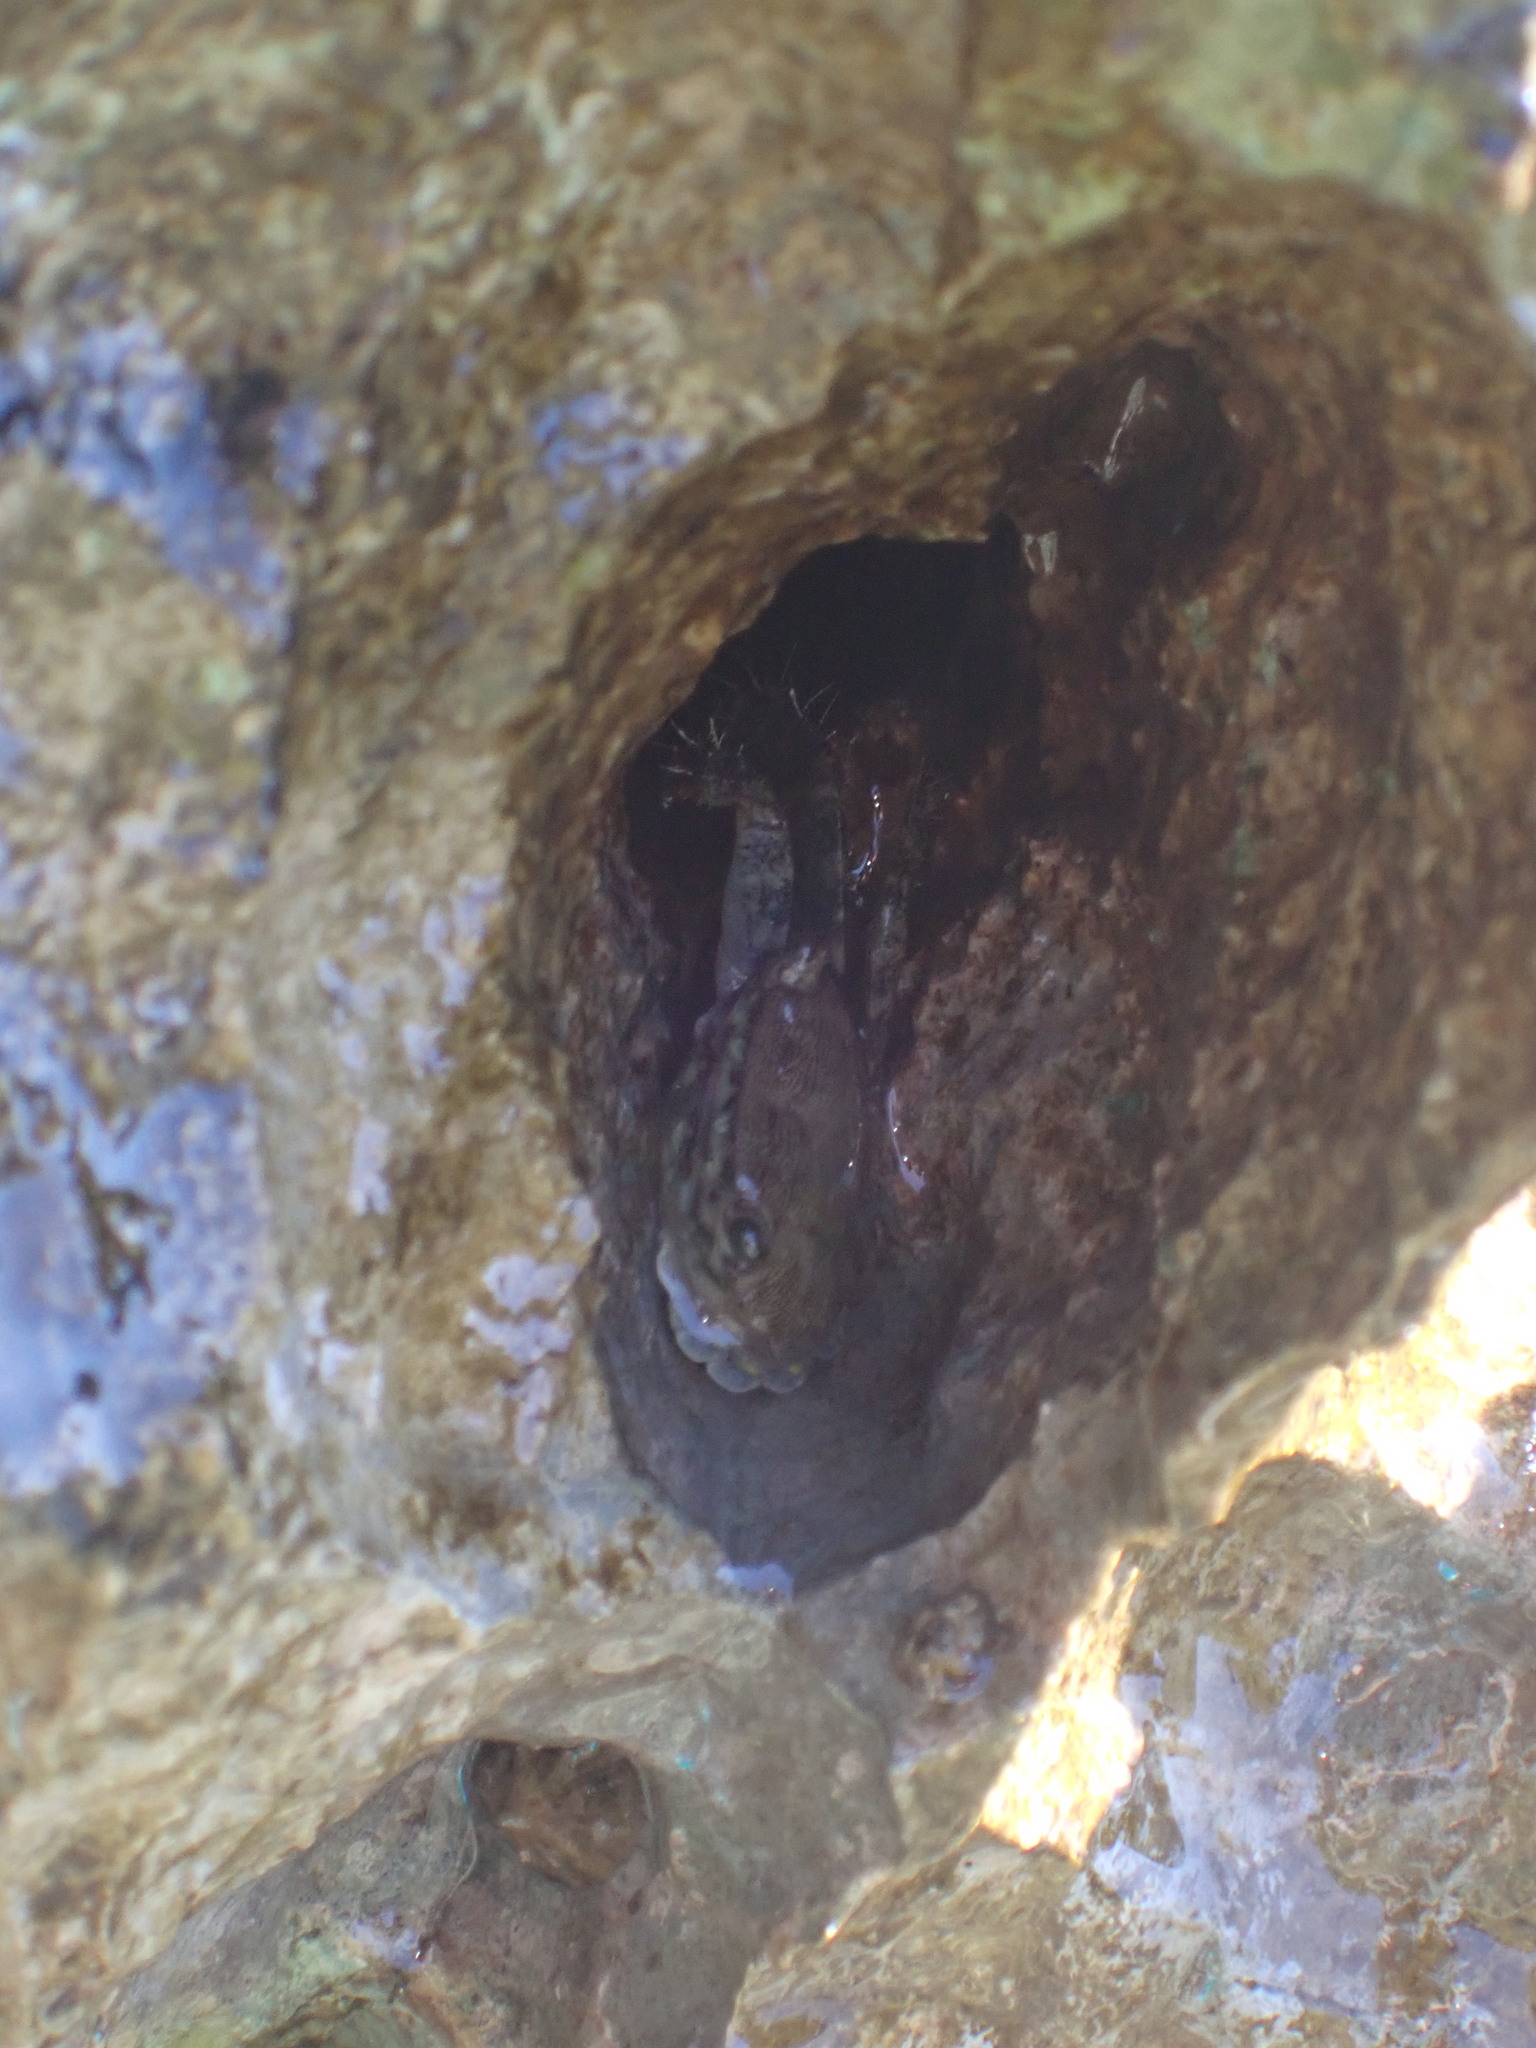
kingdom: Animalia
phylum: Arthropoda
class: Malacostraca
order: Decapoda
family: Grapsidae
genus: Pachygrapsus
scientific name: Pachygrapsus marmoratus
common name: Marbled rock crab
